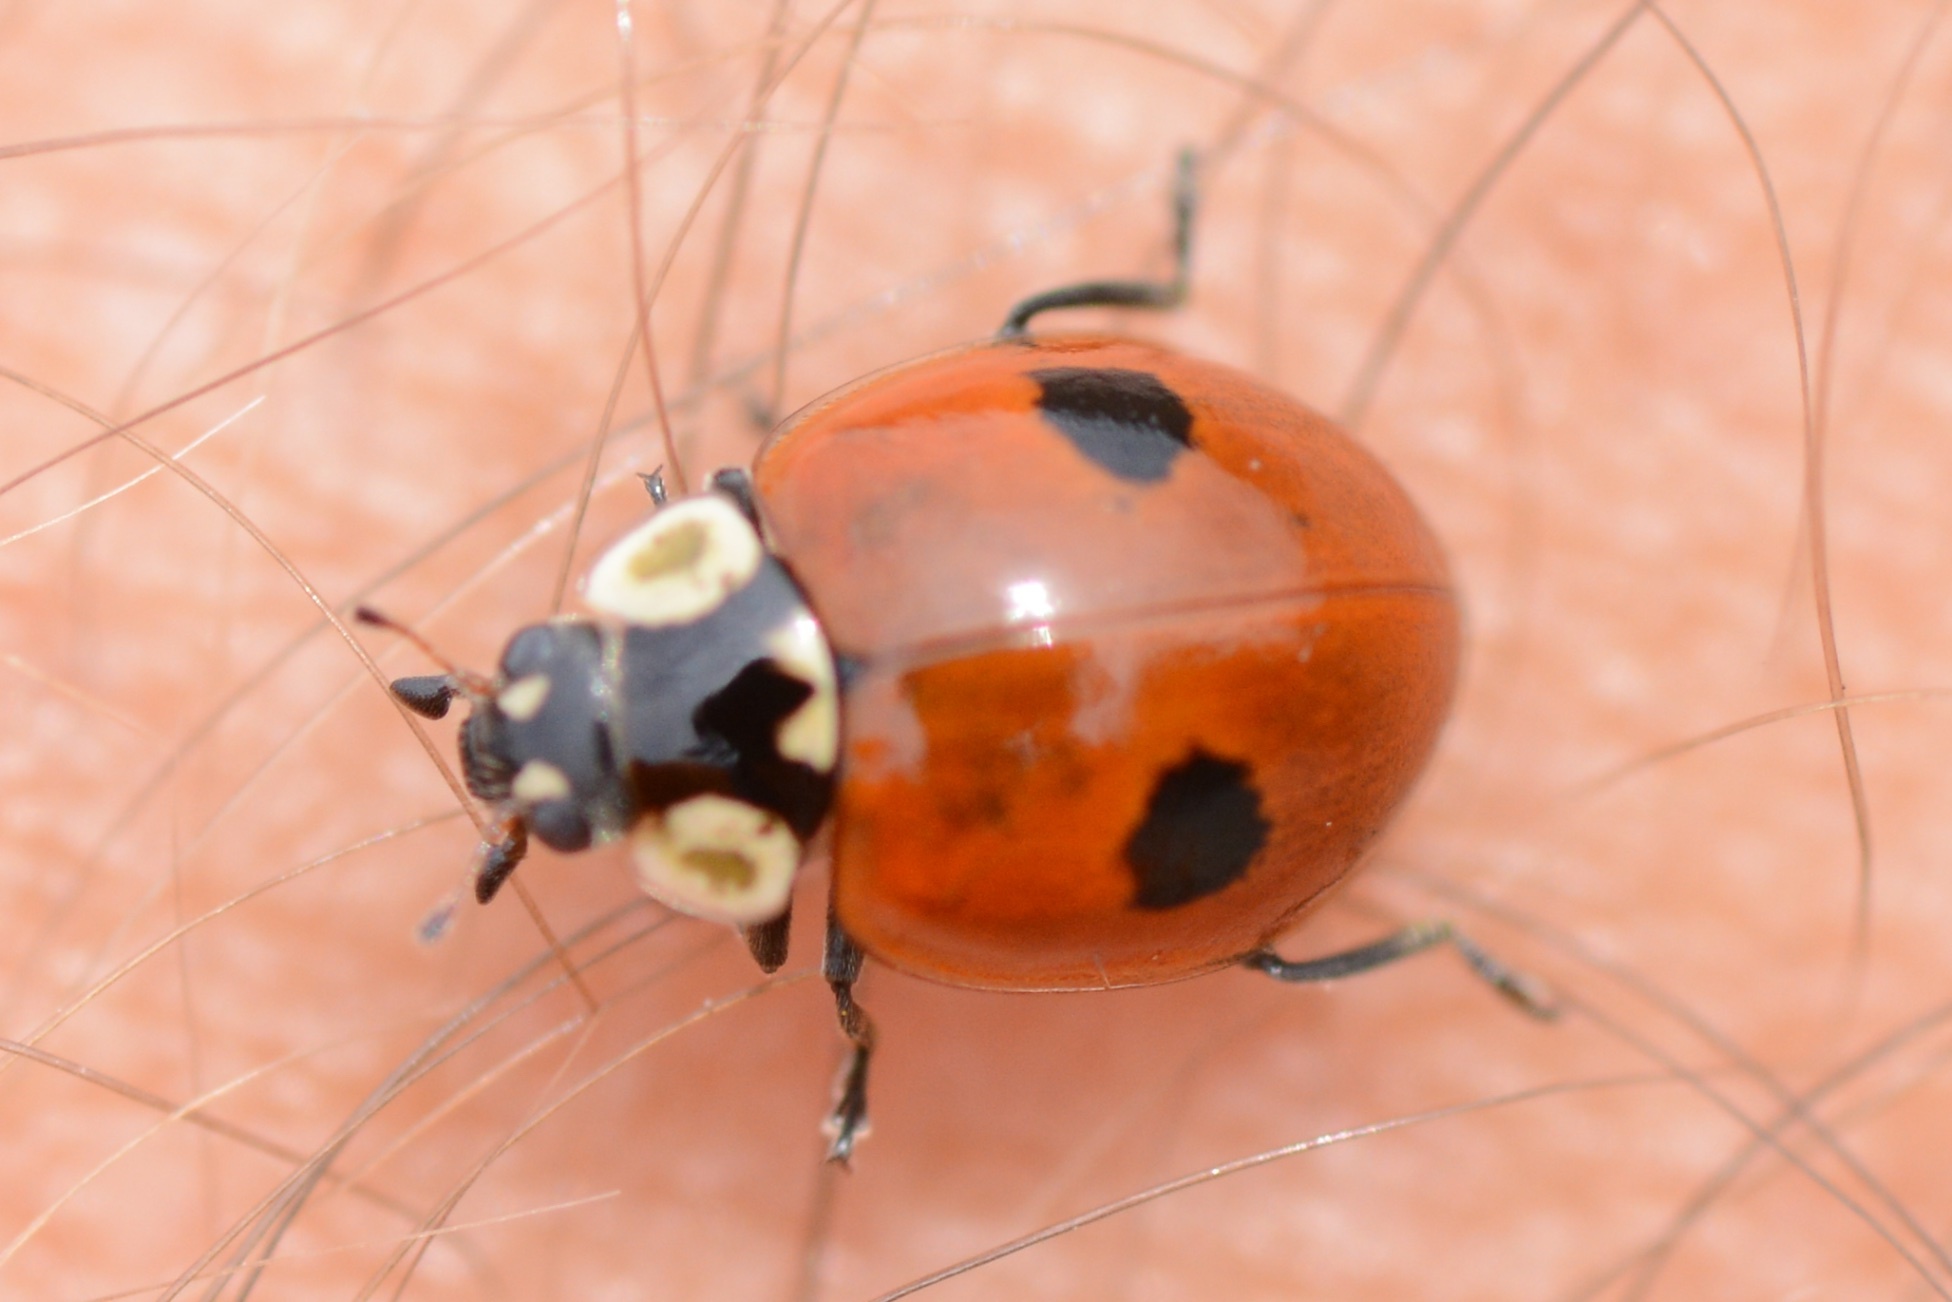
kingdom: Animalia
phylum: Arthropoda
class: Insecta
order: Coleoptera
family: Coccinellidae
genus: Adalia
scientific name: Adalia bipunctata
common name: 2-spot ladybird
